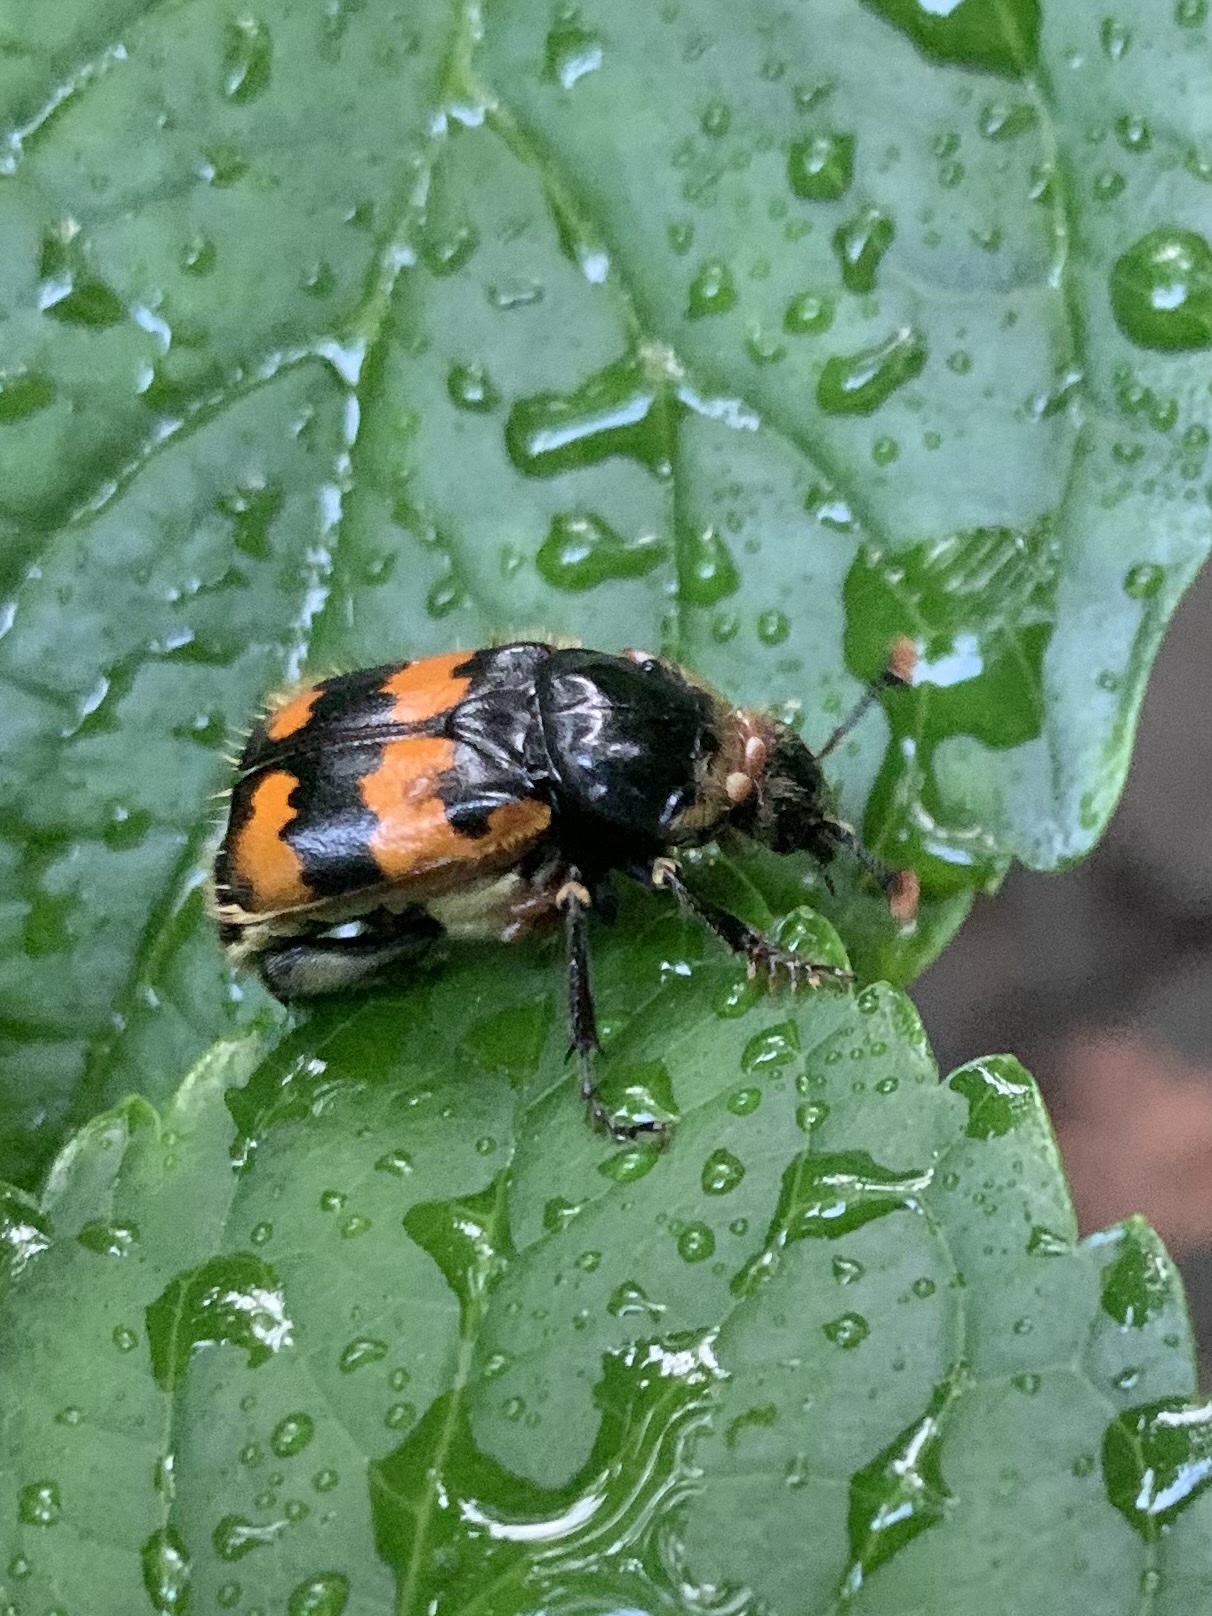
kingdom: Animalia
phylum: Arthropoda
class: Insecta
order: Coleoptera
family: Staphylinidae
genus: Nicrophorus
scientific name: Nicrophorus vespillo
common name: Common burying beetle
